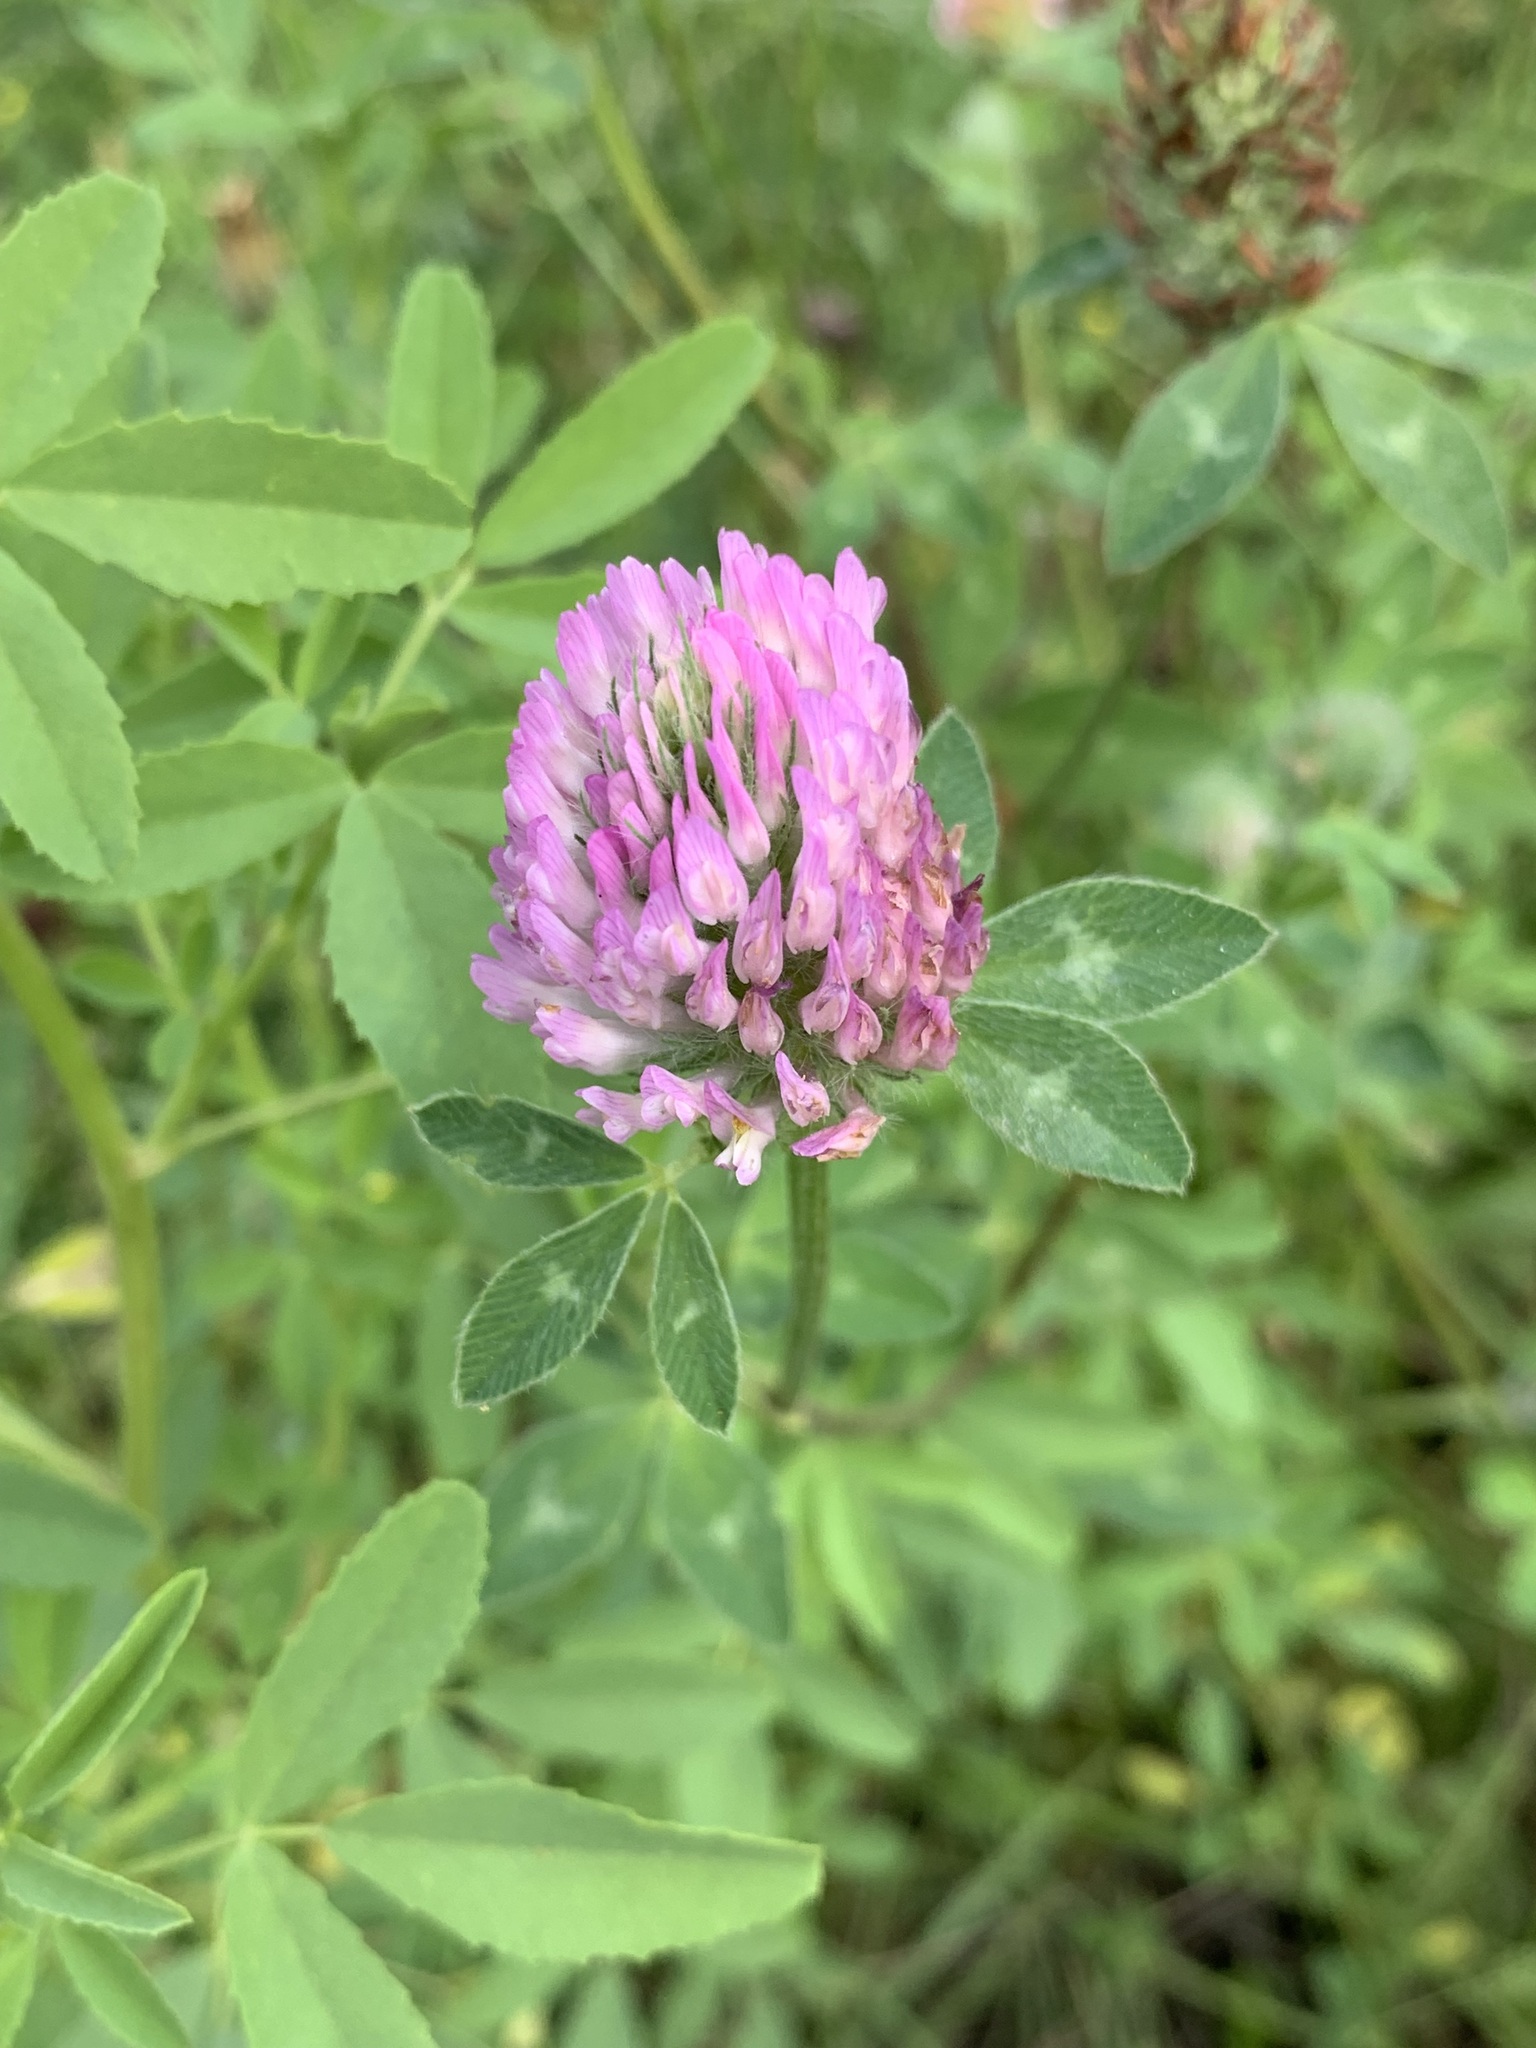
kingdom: Plantae
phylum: Tracheophyta
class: Magnoliopsida
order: Fabales
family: Fabaceae
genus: Trifolium
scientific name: Trifolium pratense
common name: Red clover
